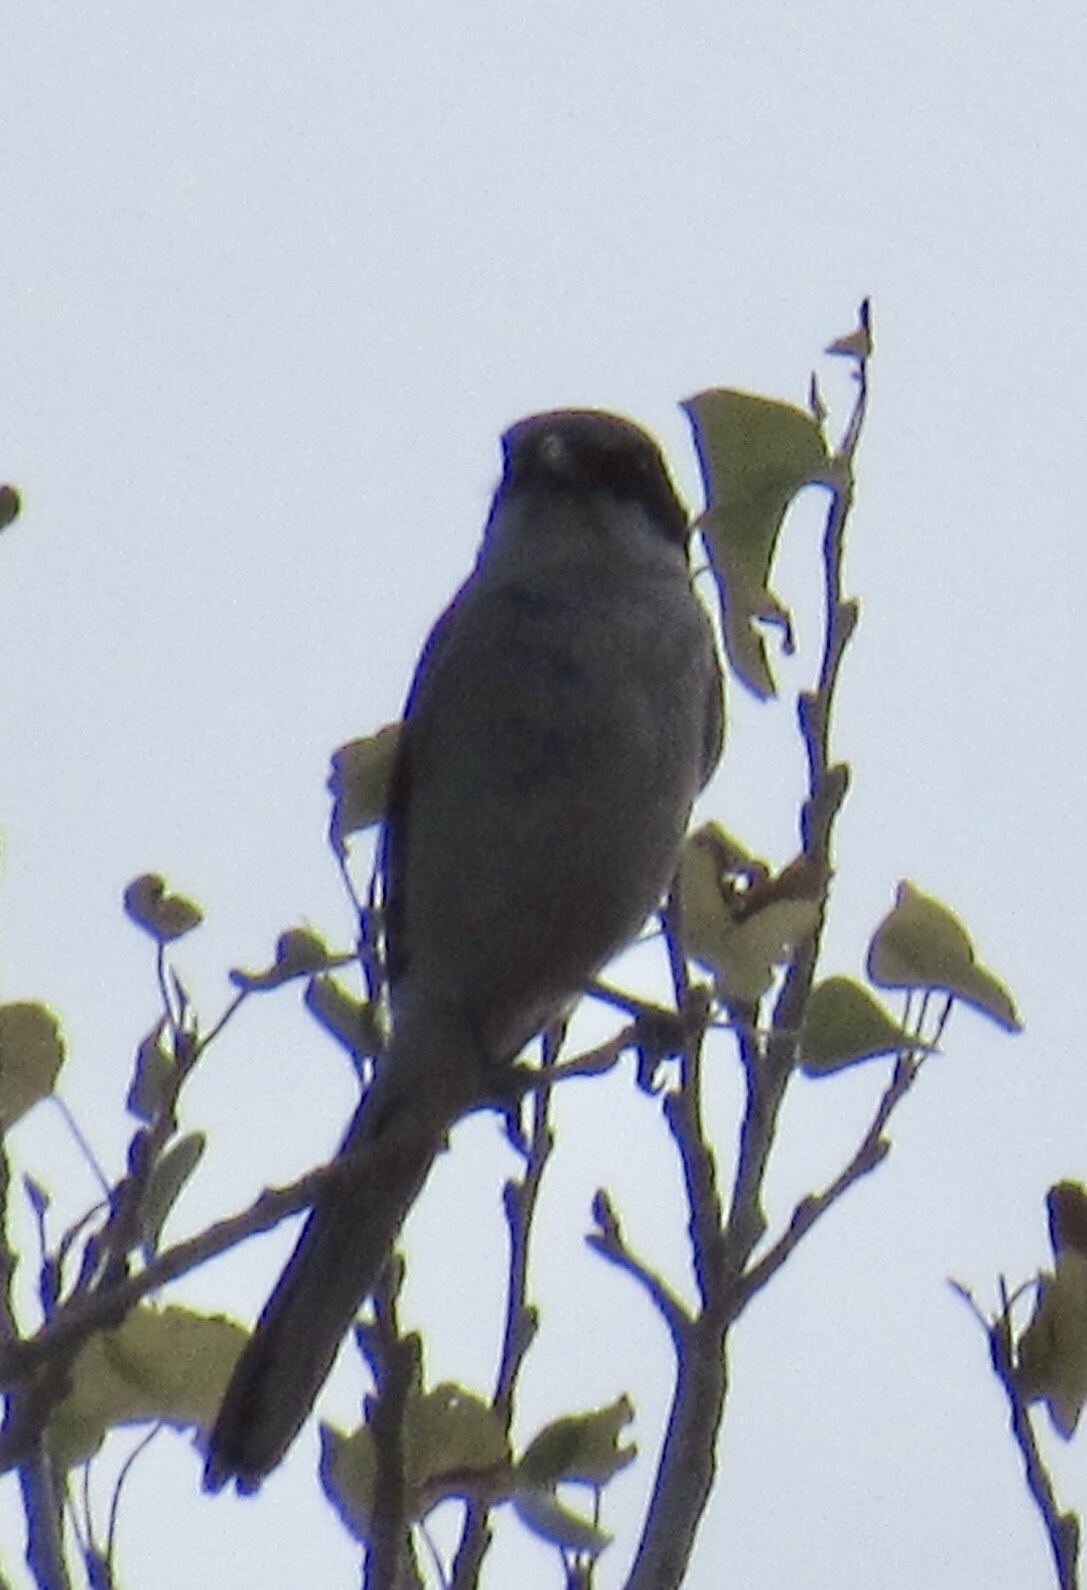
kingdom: Animalia
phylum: Chordata
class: Aves
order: Passeriformes
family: Laniidae
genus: Lanius
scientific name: Lanius ludovicianus
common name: Loggerhead shrike
